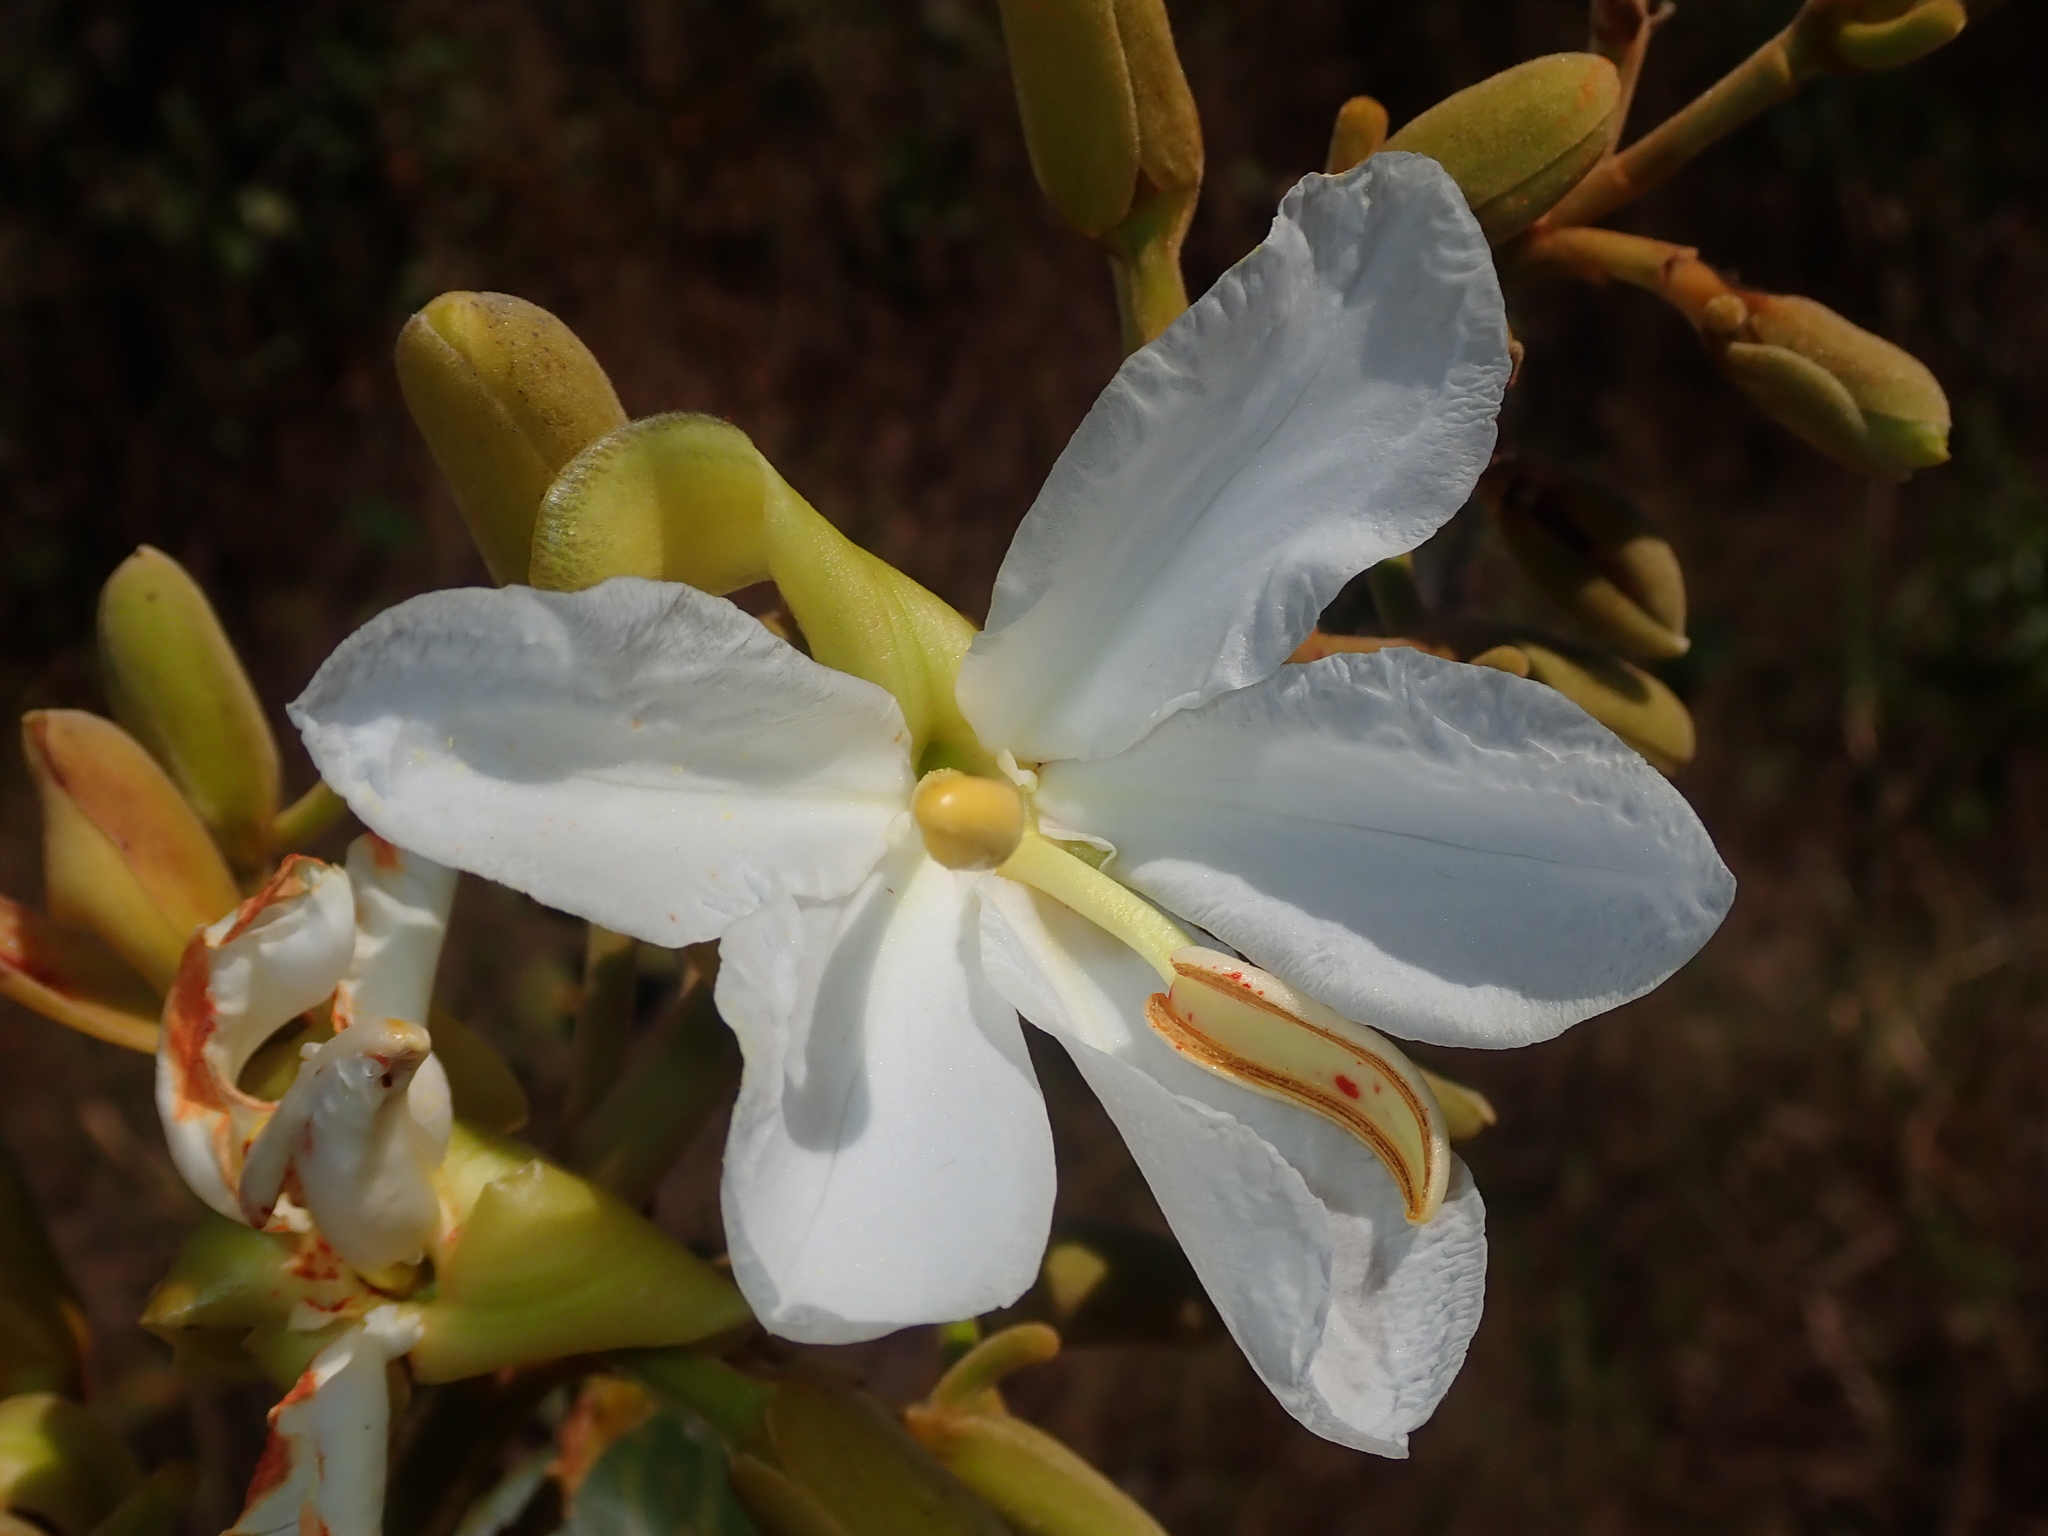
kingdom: Plantae
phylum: Tracheophyta
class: Magnoliopsida
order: Myrtales
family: Vochysiaceae
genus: Salvertia
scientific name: Salvertia convallariodora
